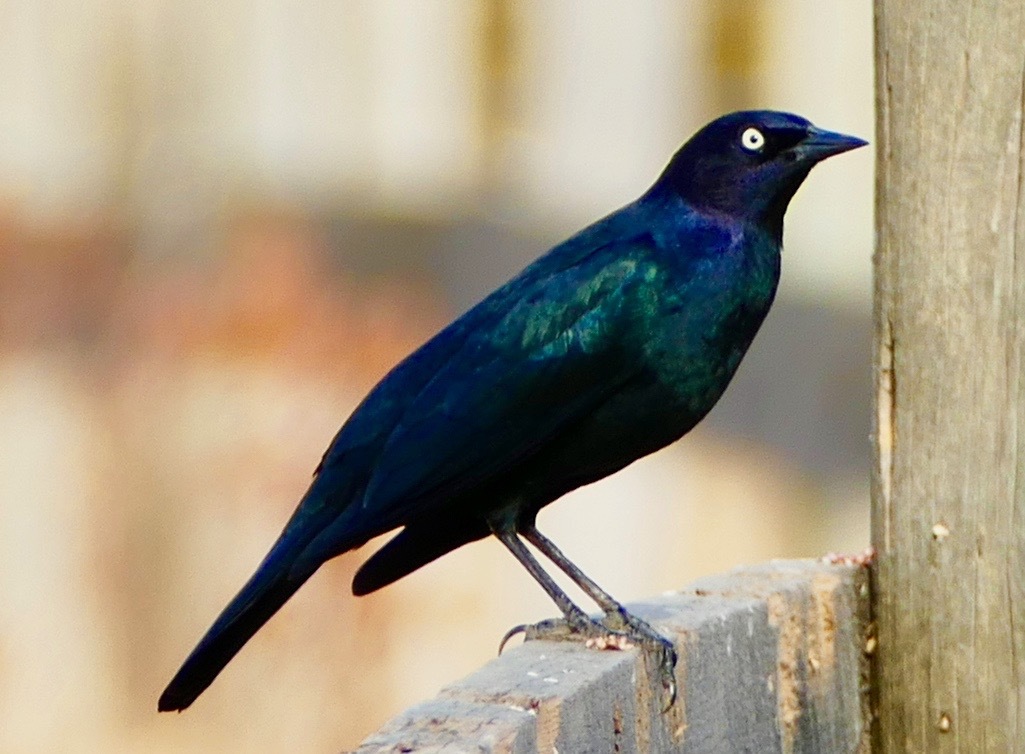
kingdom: Animalia
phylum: Chordata
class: Aves
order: Passeriformes
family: Icteridae
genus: Euphagus
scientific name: Euphagus cyanocephalus
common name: Brewer's blackbird
